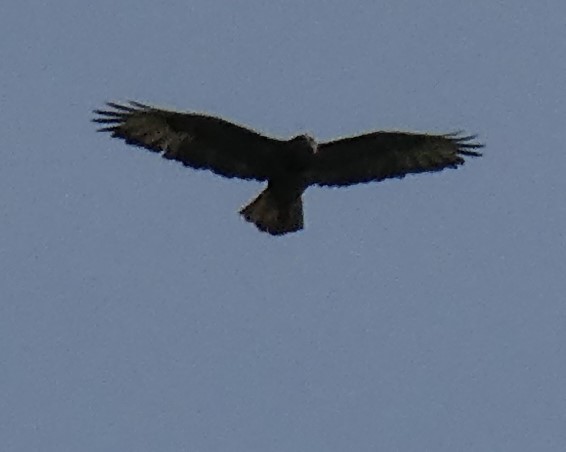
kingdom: Animalia
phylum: Chordata
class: Aves
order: Accipitriformes
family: Accipitridae
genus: Buteo
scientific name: Buteo buteo
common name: Common buzzard
